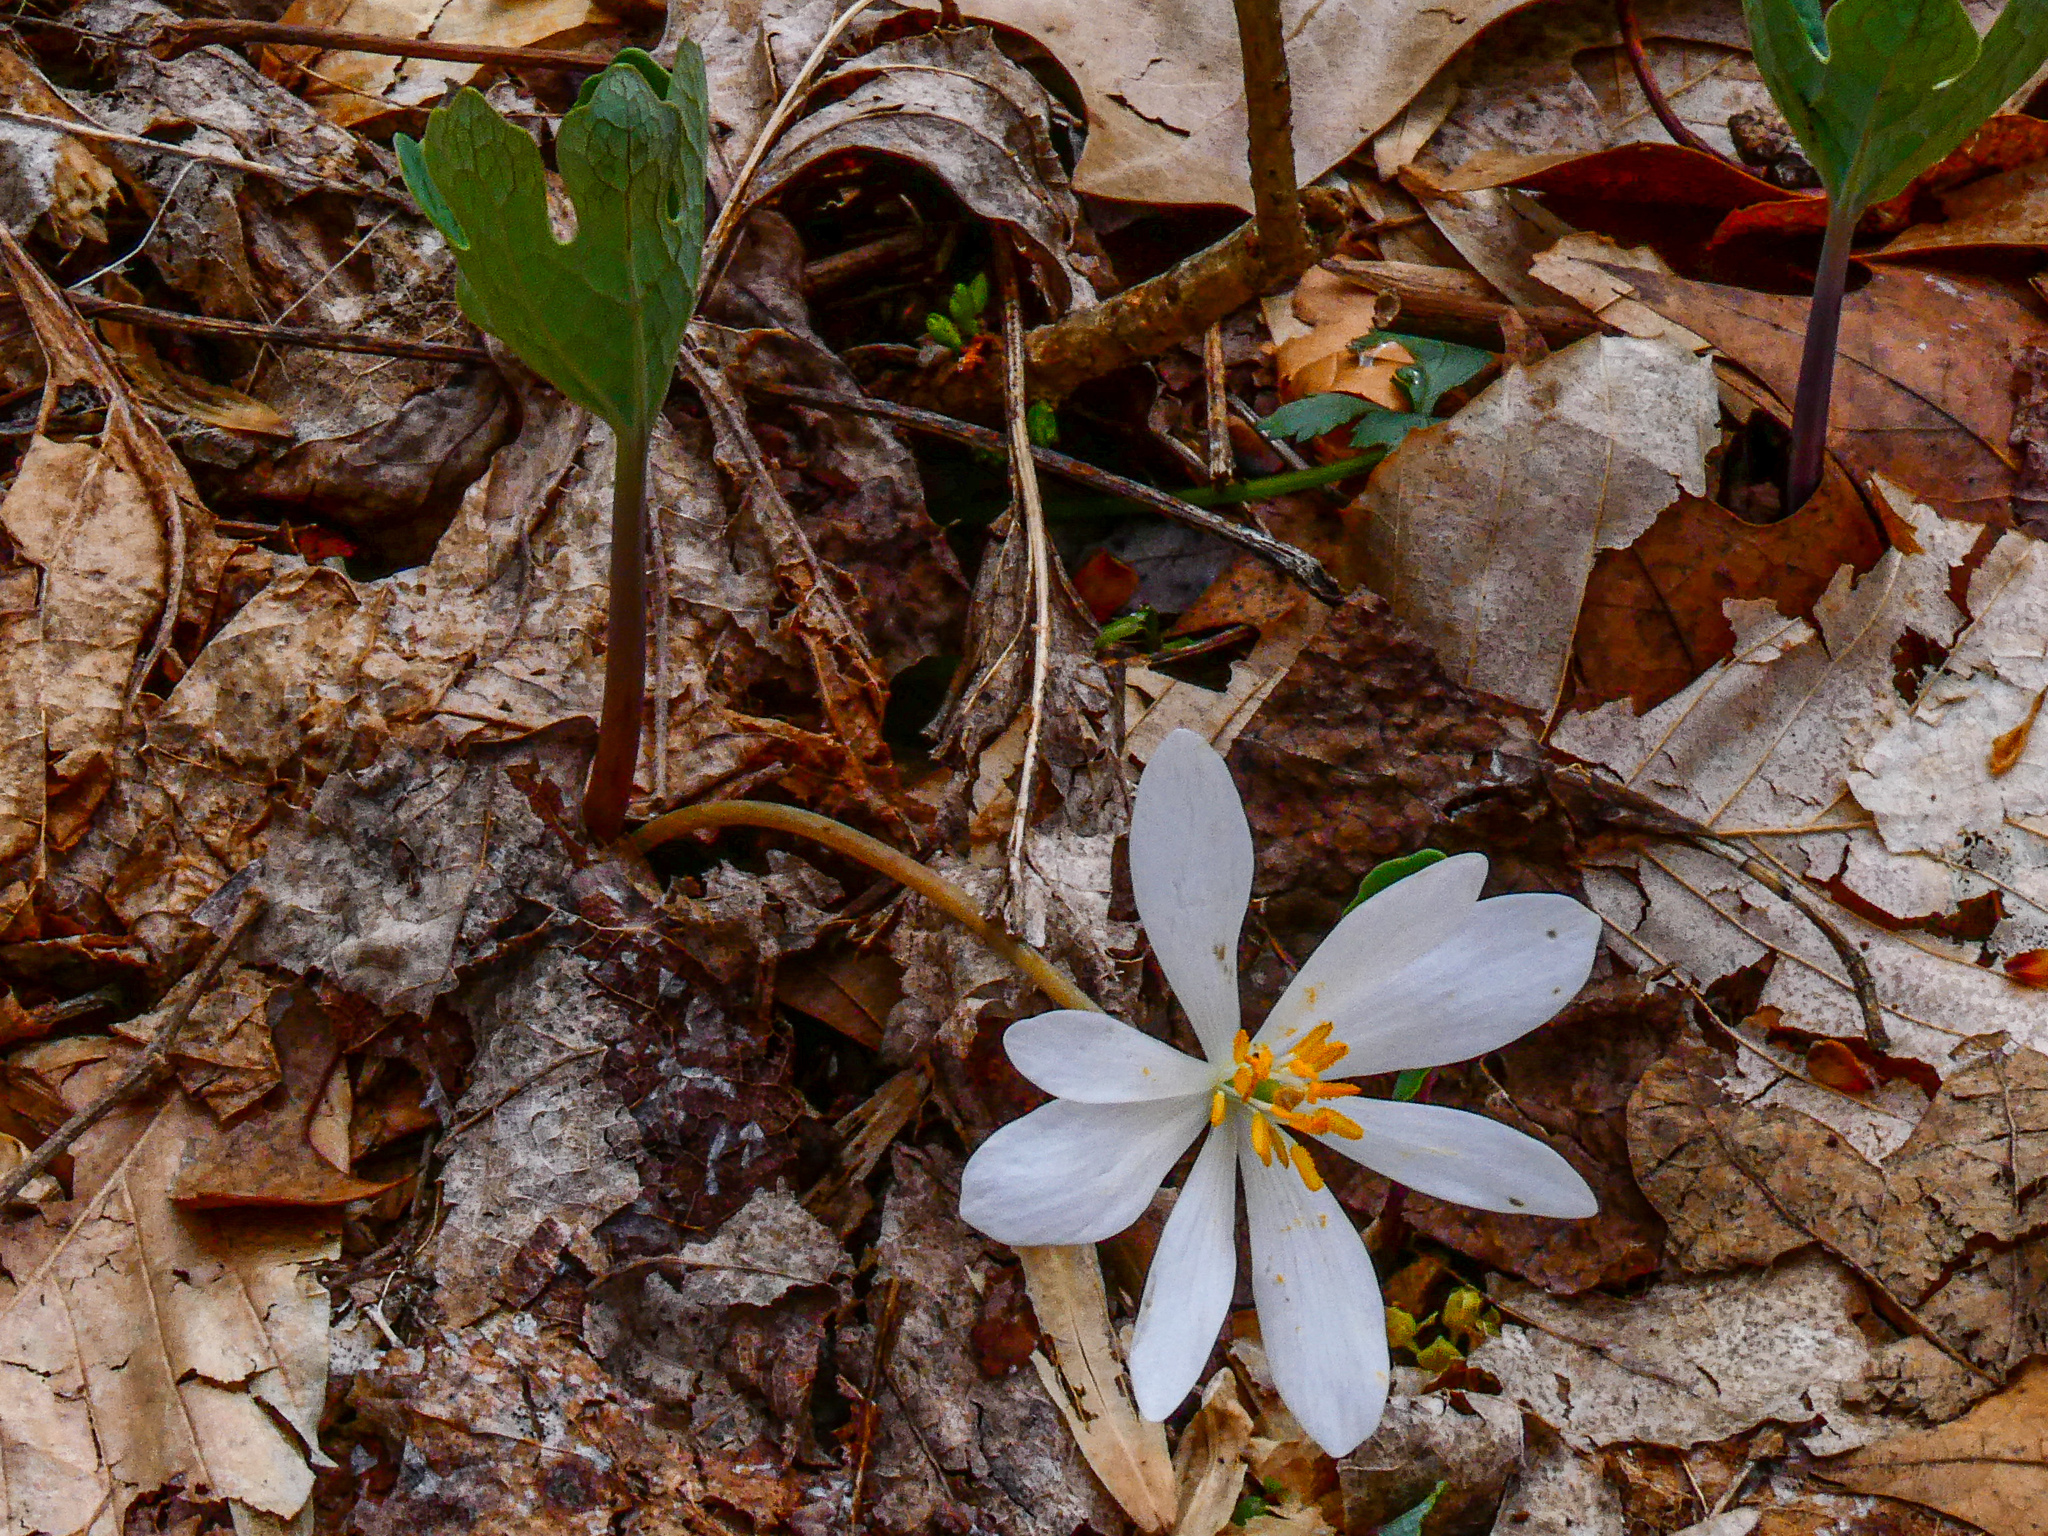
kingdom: Plantae
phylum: Tracheophyta
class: Magnoliopsida
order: Ranunculales
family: Papaveraceae
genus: Sanguinaria
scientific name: Sanguinaria canadensis
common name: Bloodroot
